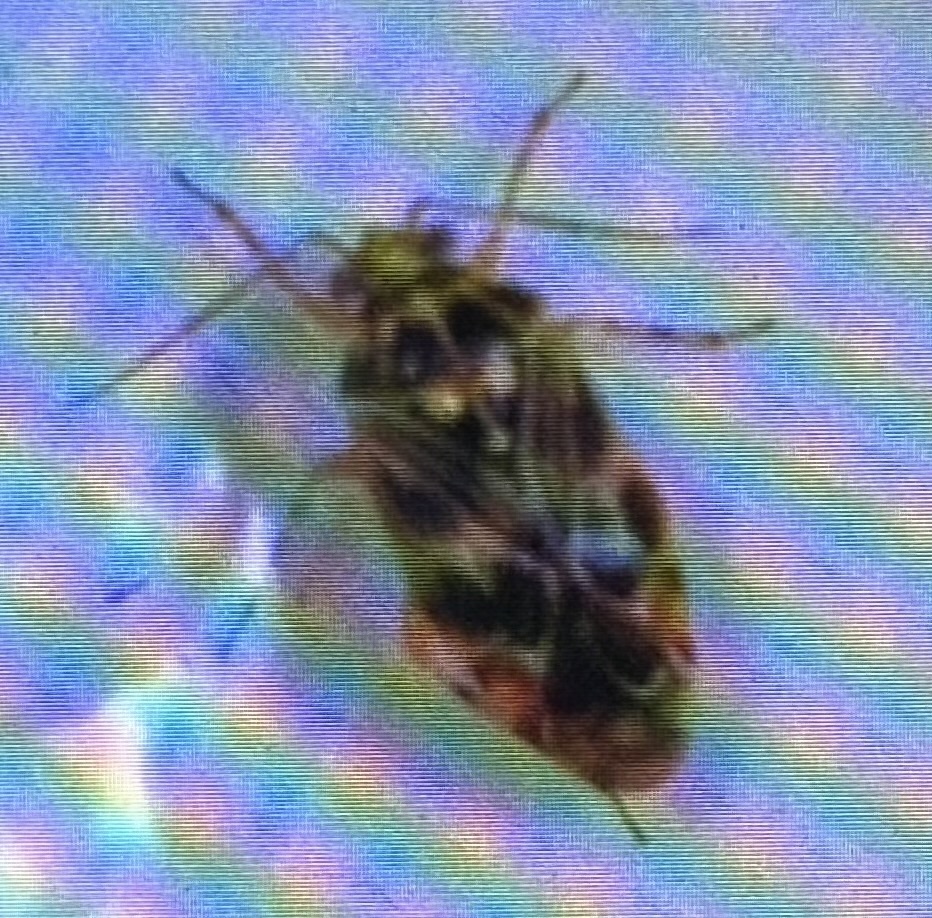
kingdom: Animalia
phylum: Arthropoda
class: Insecta
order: Hemiptera
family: Miridae
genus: Tropidosteptes
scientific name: Tropidosteptes quercicola
